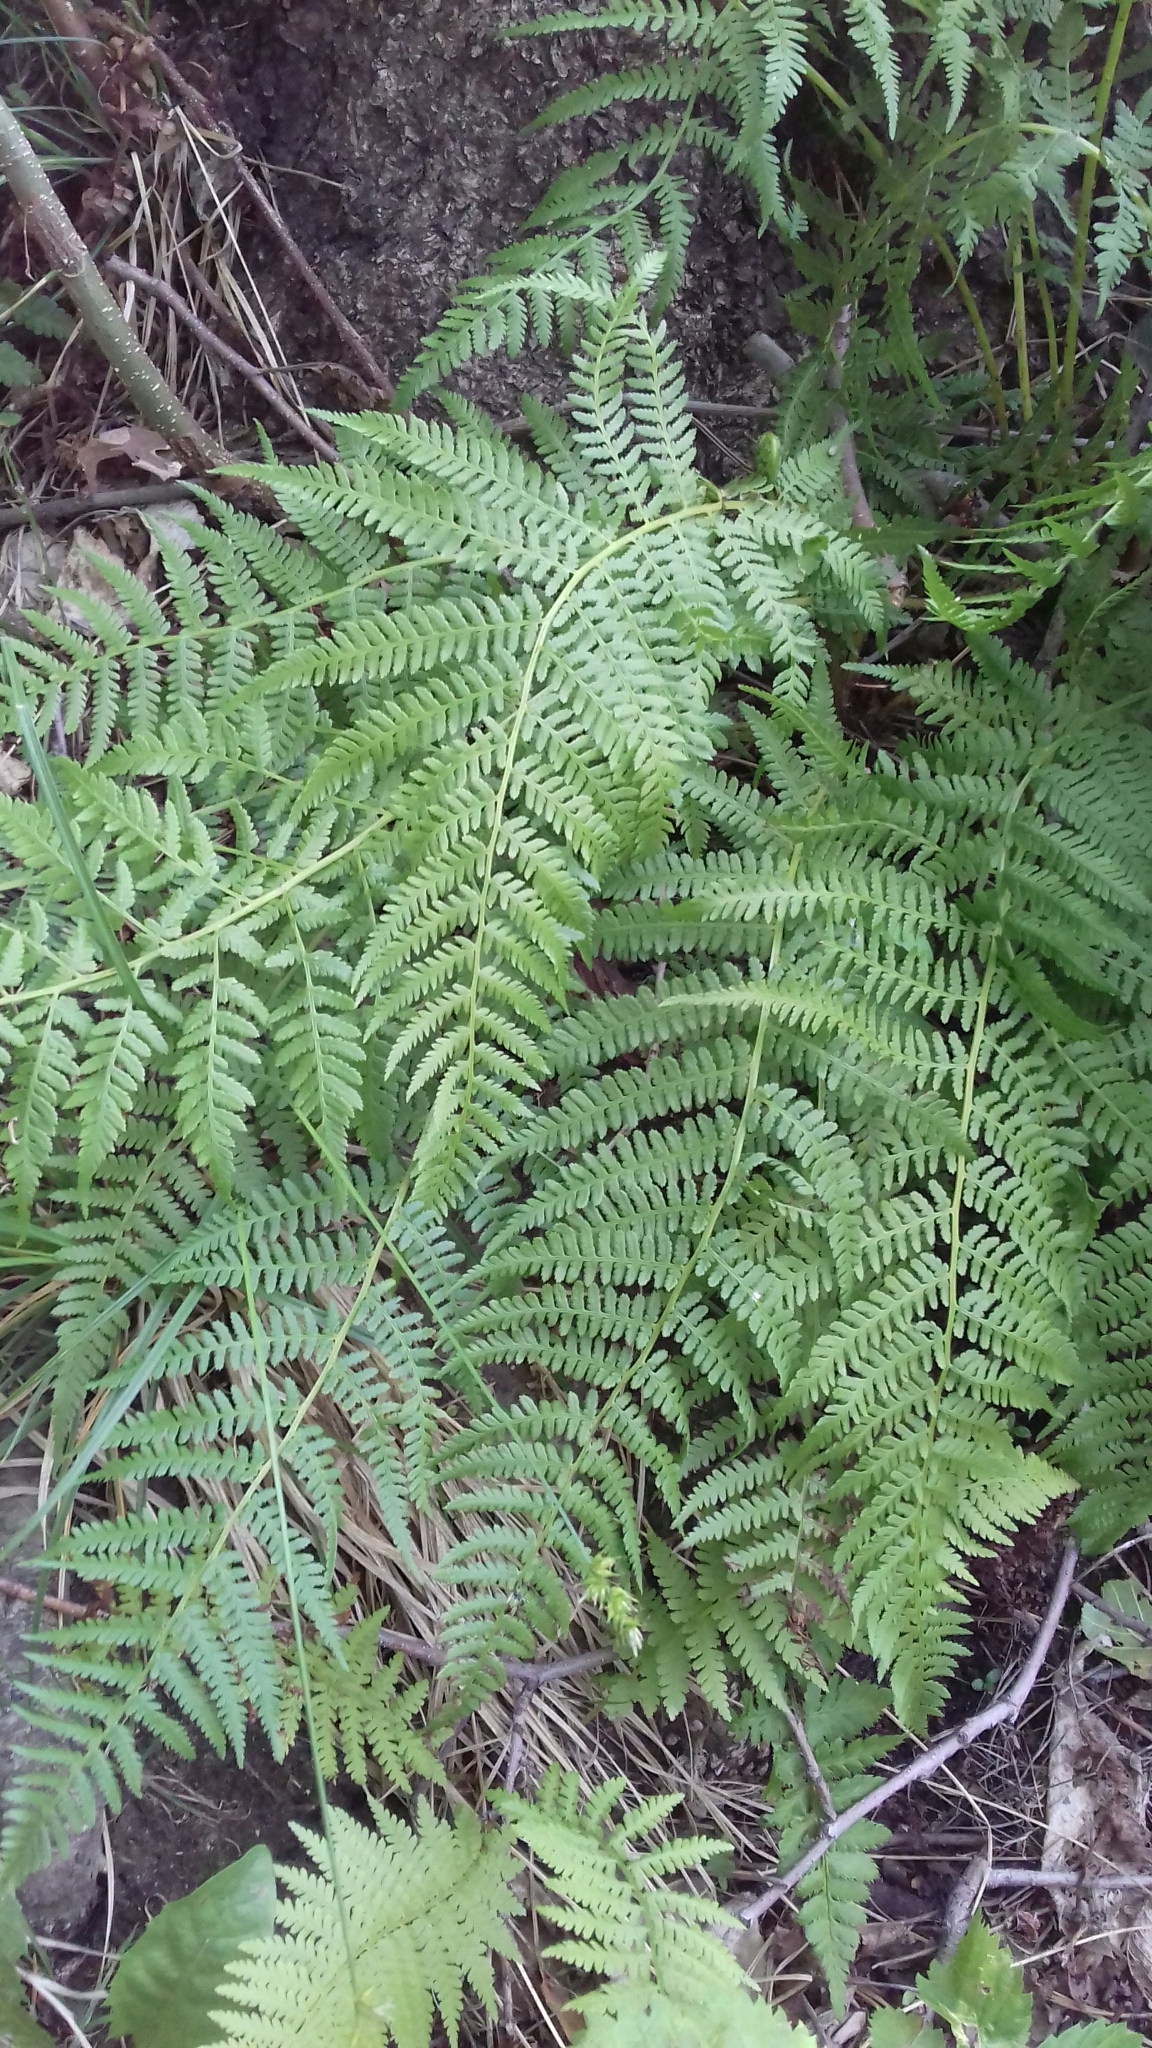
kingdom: Plantae
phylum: Tracheophyta
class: Polypodiopsida
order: Polypodiales
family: Athyriaceae
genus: Athyrium
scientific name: Athyrium filix-femina
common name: Lady fern
